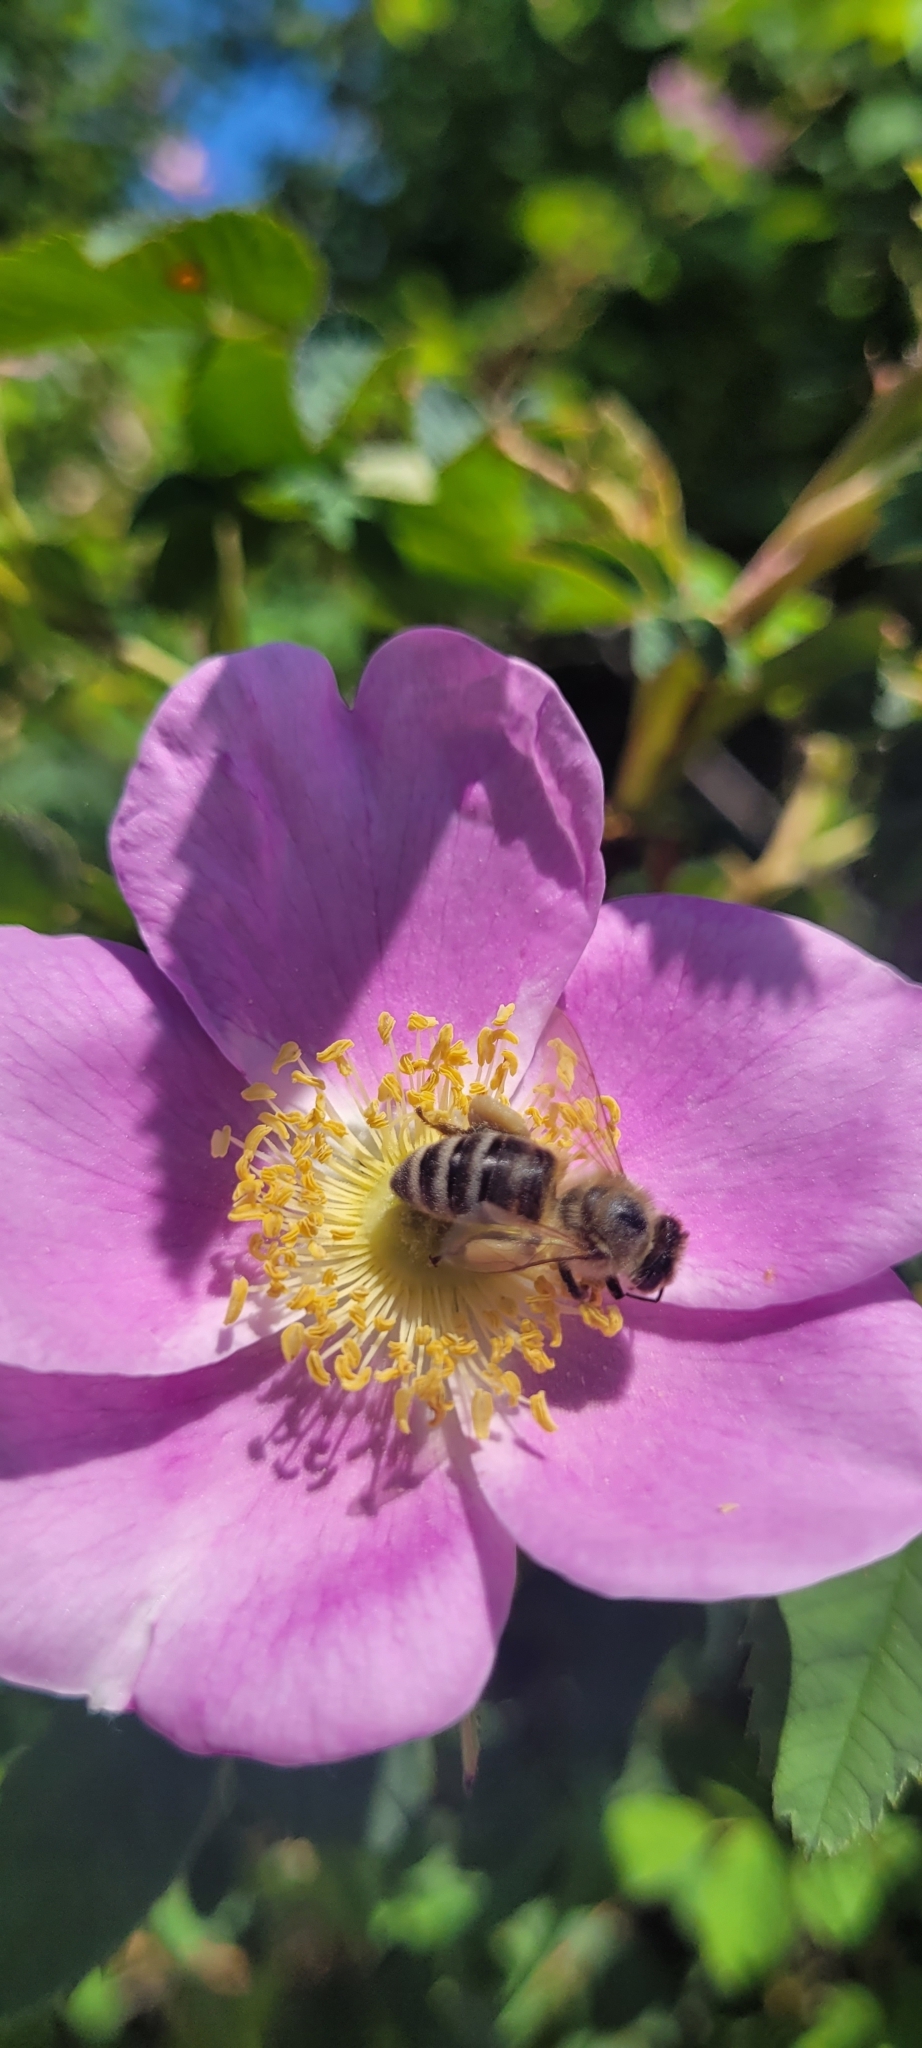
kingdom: Animalia
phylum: Arthropoda
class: Insecta
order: Hymenoptera
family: Apidae
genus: Apis
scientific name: Apis mellifera
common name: Honey bee
